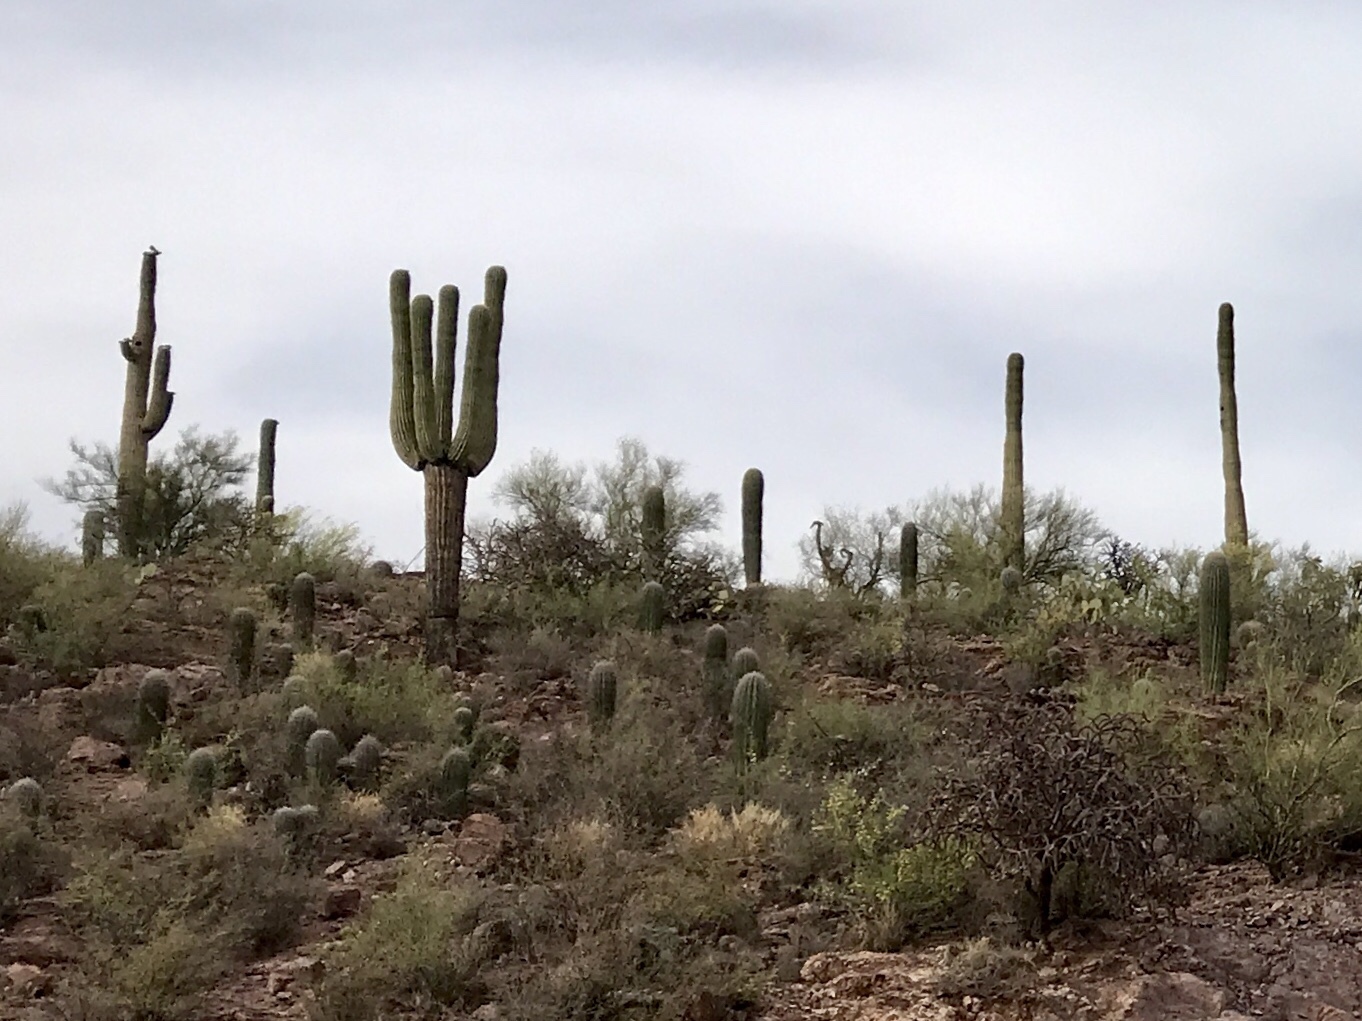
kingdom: Plantae
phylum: Tracheophyta
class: Magnoliopsida
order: Caryophyllales
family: Cactaceae
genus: Carnegiea
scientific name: Carnegiea gigantea
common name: Saguaro
